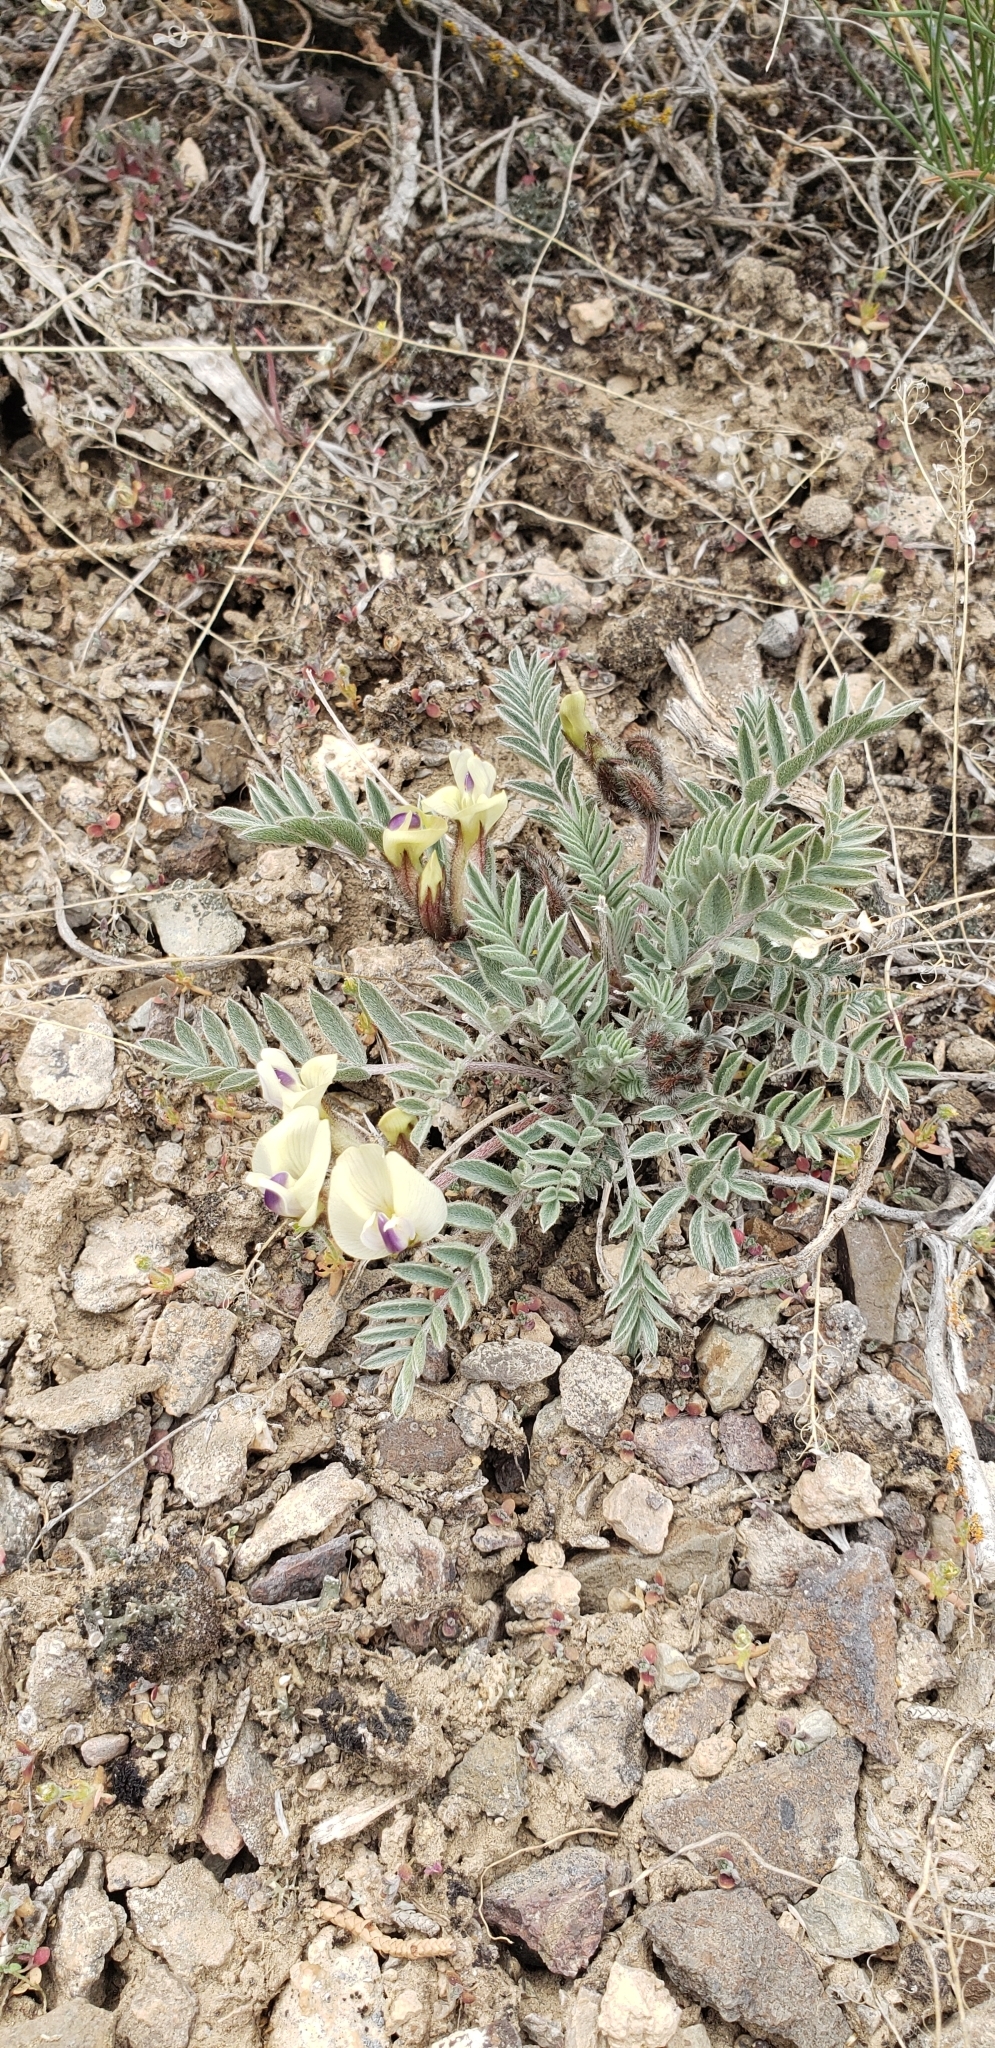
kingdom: Plantae
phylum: Tracheophyta
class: Magnoliopsida
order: Fabales
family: Fabaceae
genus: Astragalus
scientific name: Astragalus eurekensis
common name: Eureka milk-vetch
